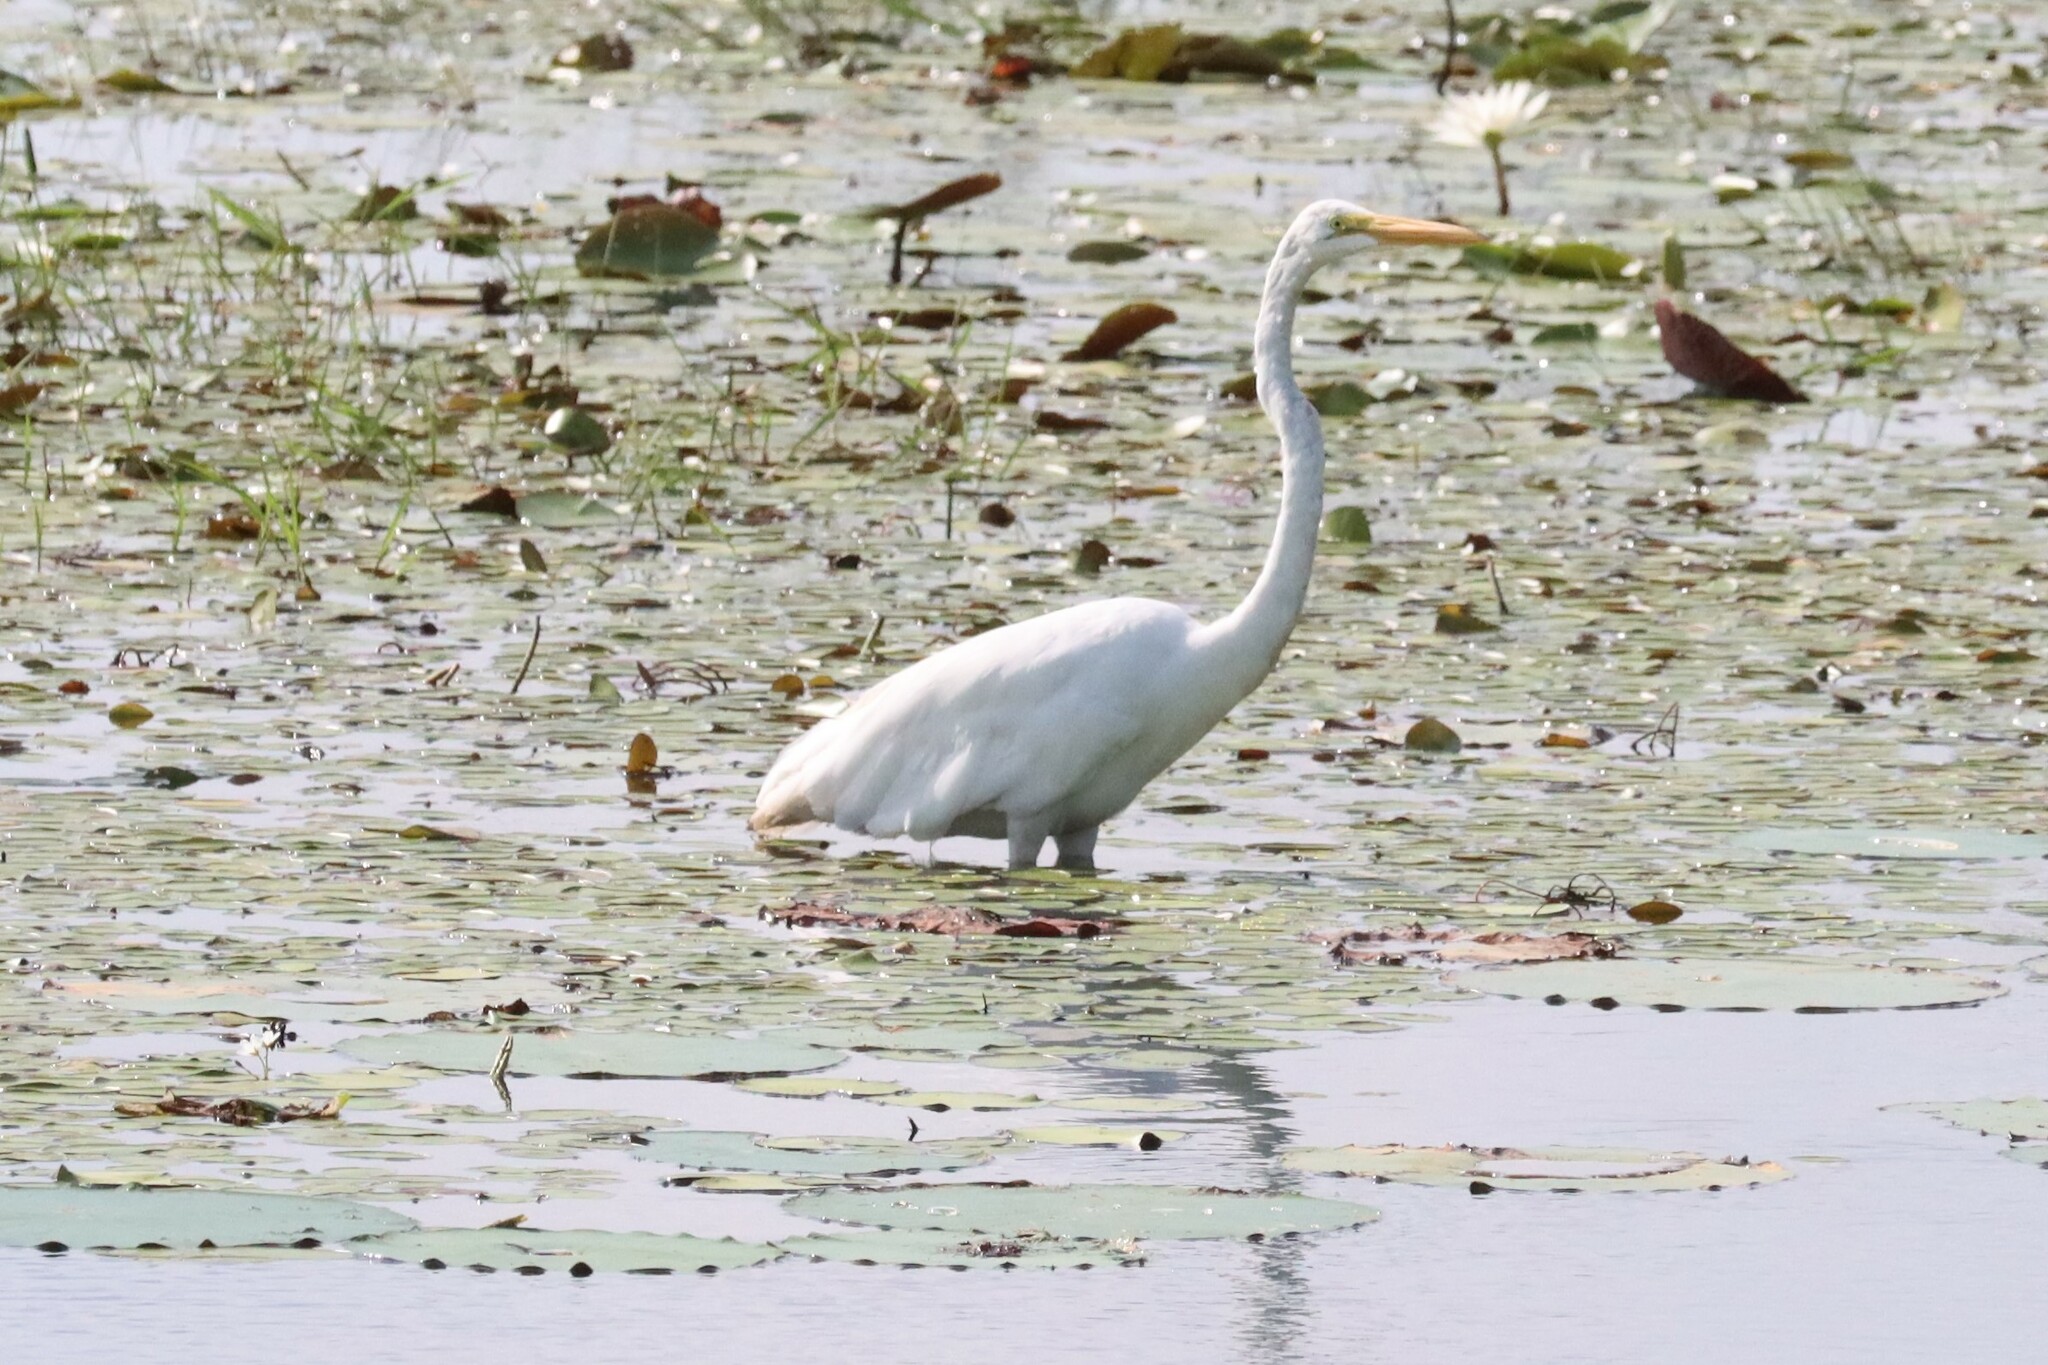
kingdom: Animalia
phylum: Chordata
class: Aves
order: Pelecaniformes
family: Ardeidae
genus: Ardea
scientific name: Ardea alba
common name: Great egret
